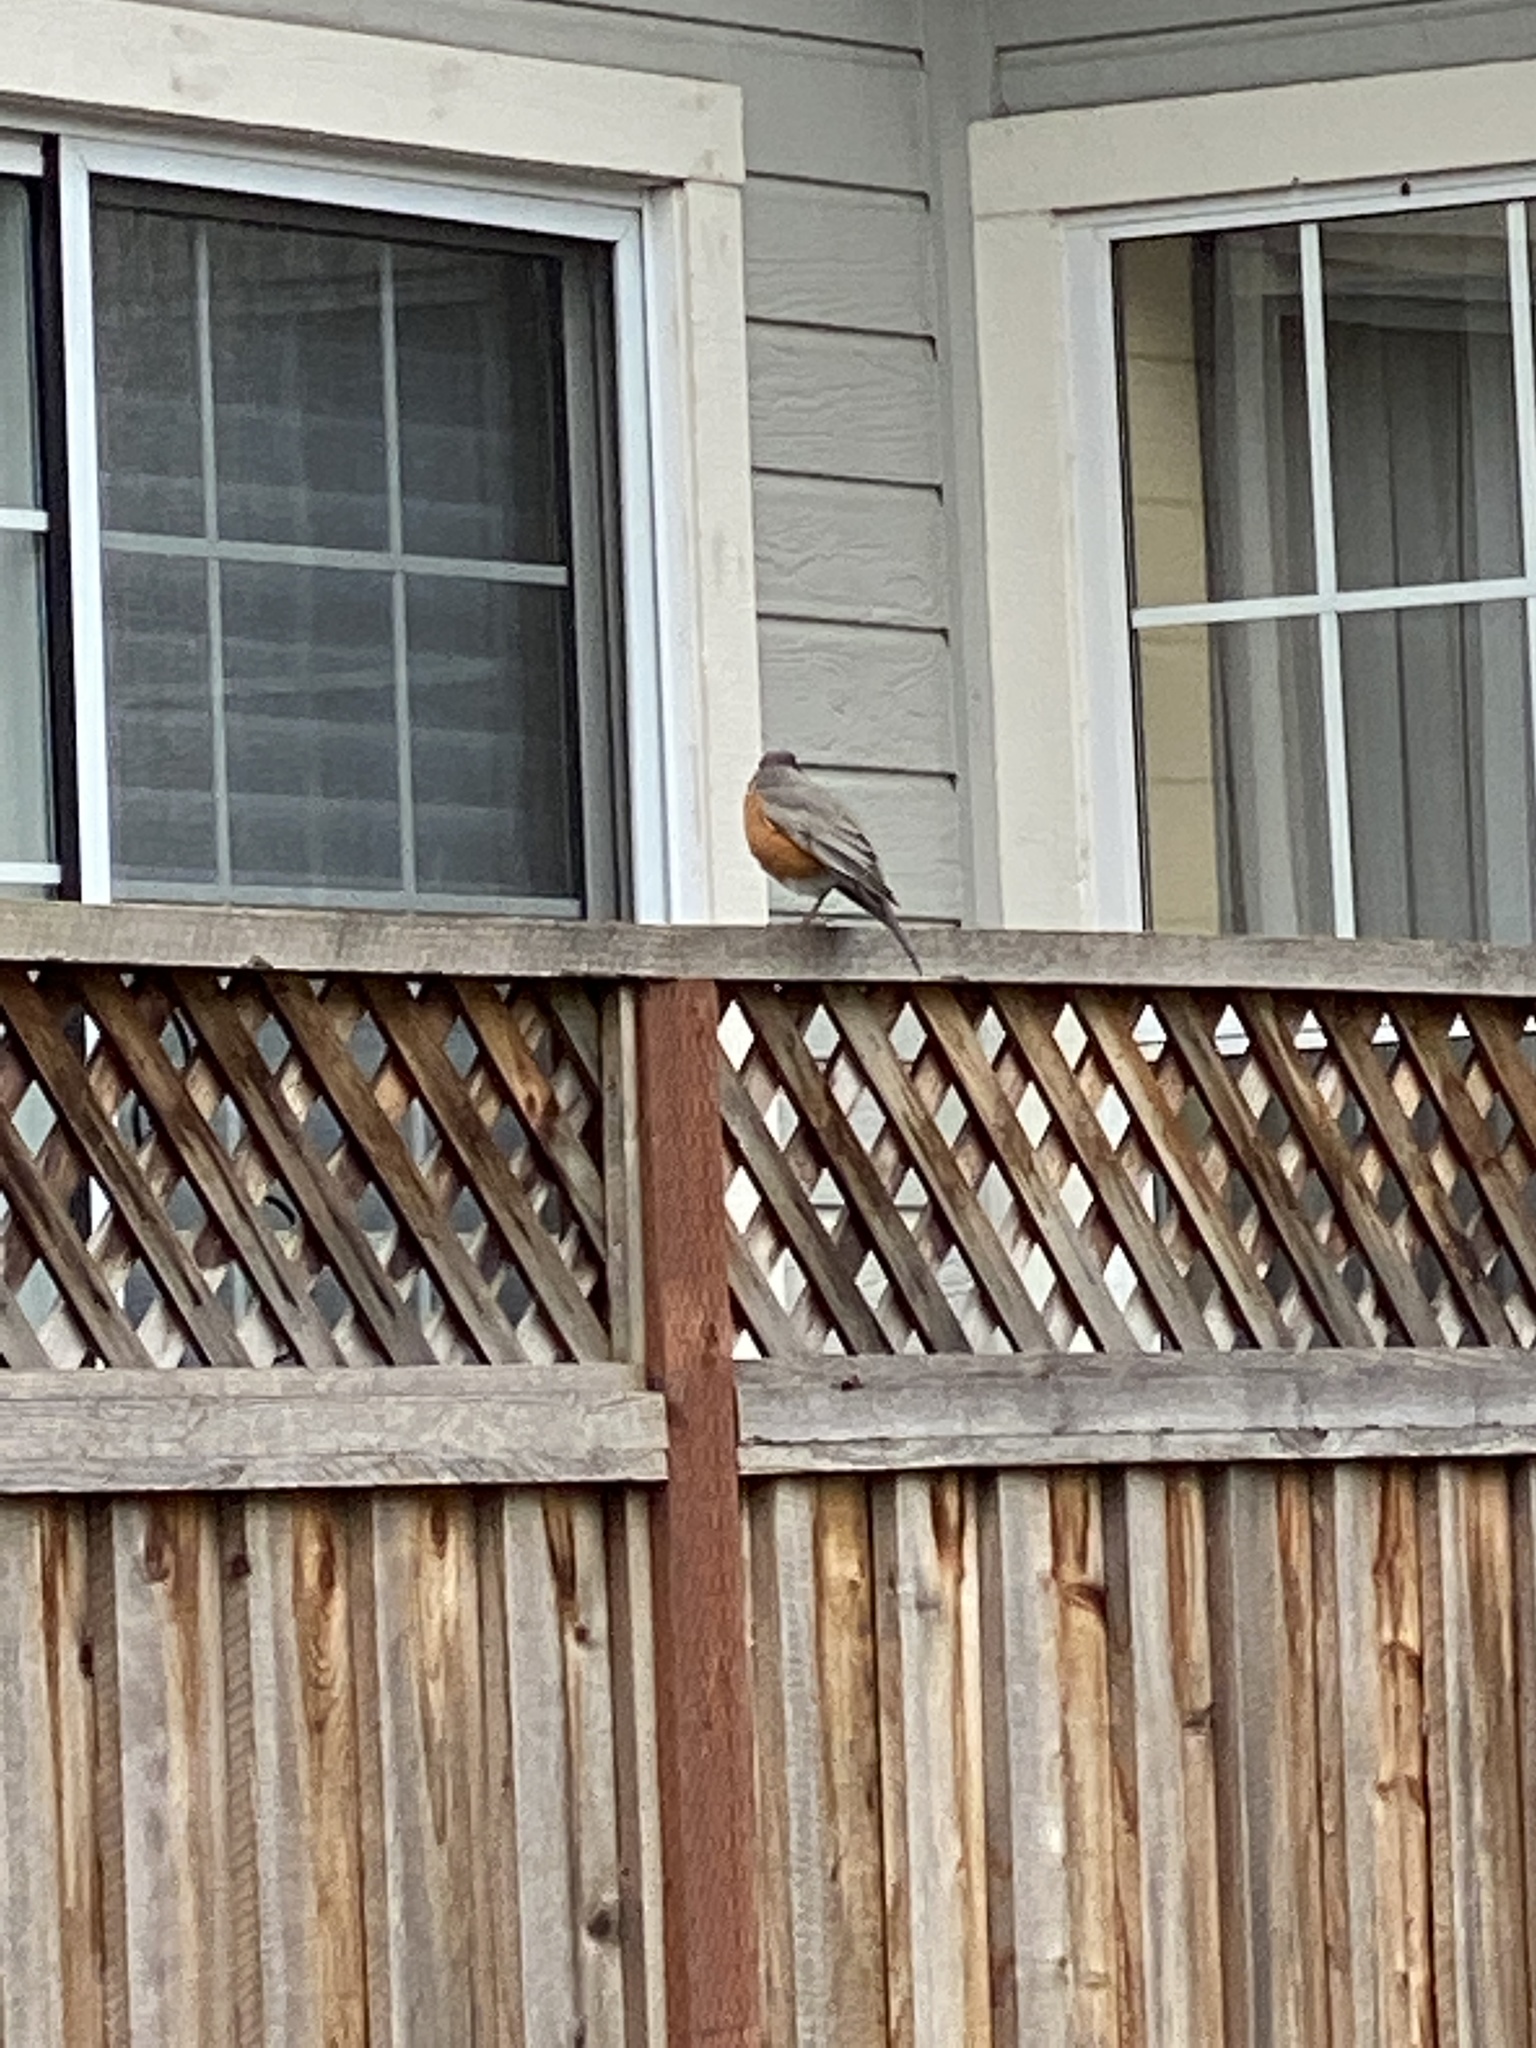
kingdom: Animalia
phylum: Chordata
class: Aves
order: Passeriformes
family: Turdidae
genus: Turdus
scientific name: Turdus migratorius
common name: American robin
